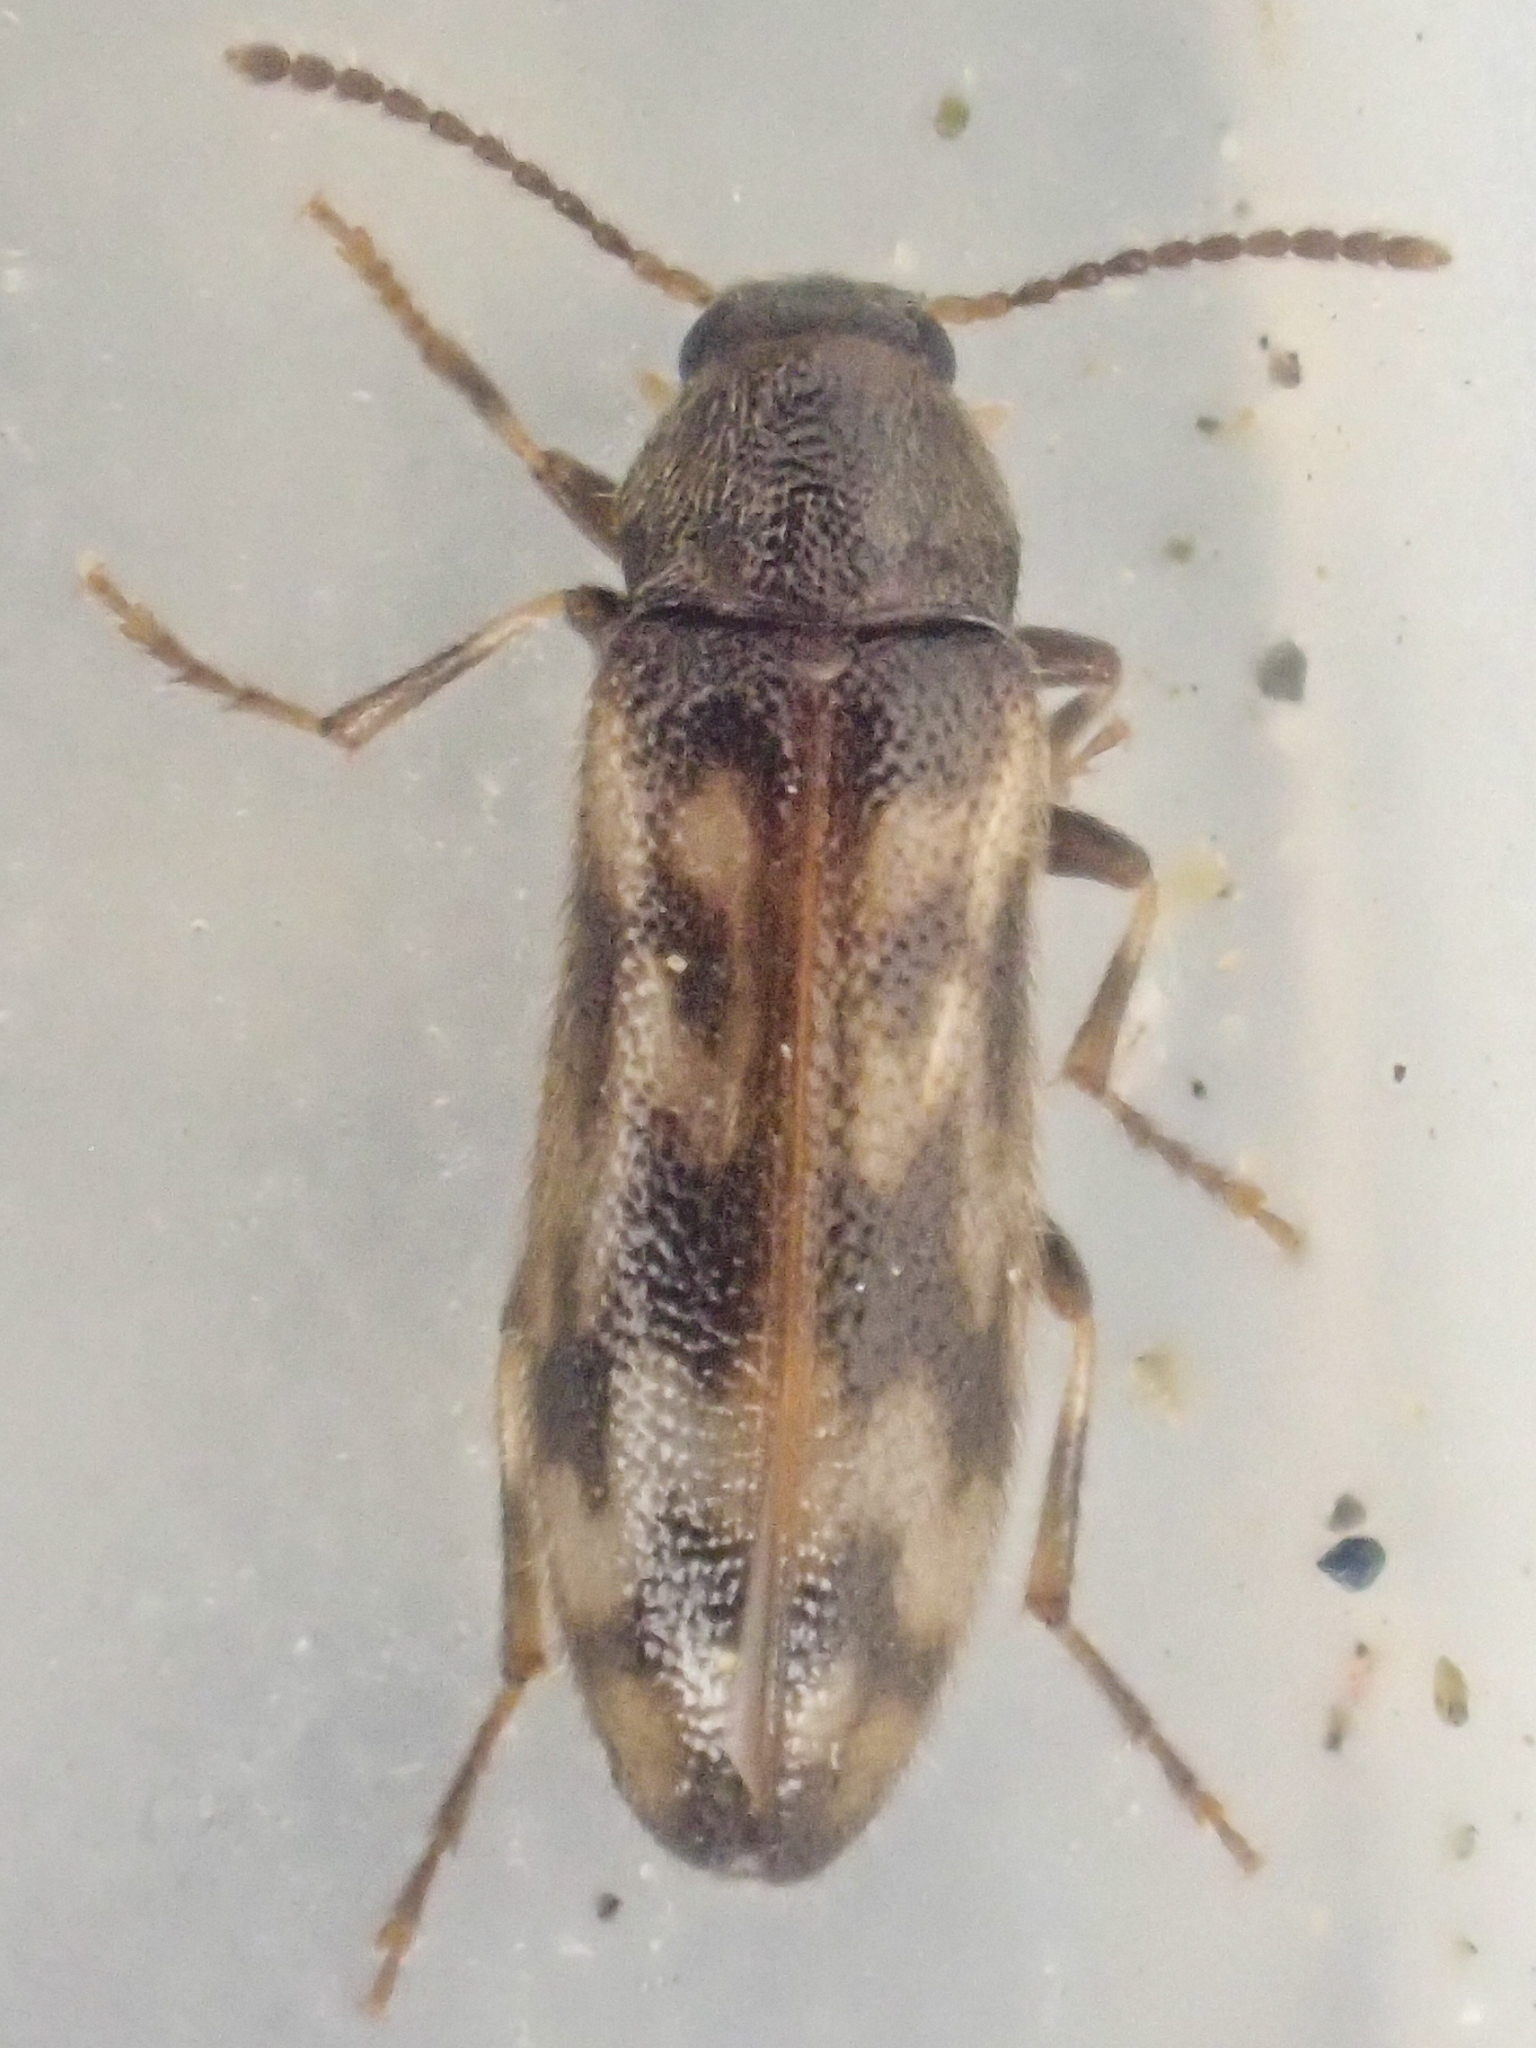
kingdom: Animalia
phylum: Arthropoda
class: Insecta
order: Coleoptera
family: Melandryidae
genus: Prothalpia
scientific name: Prothalpia holmbergi
